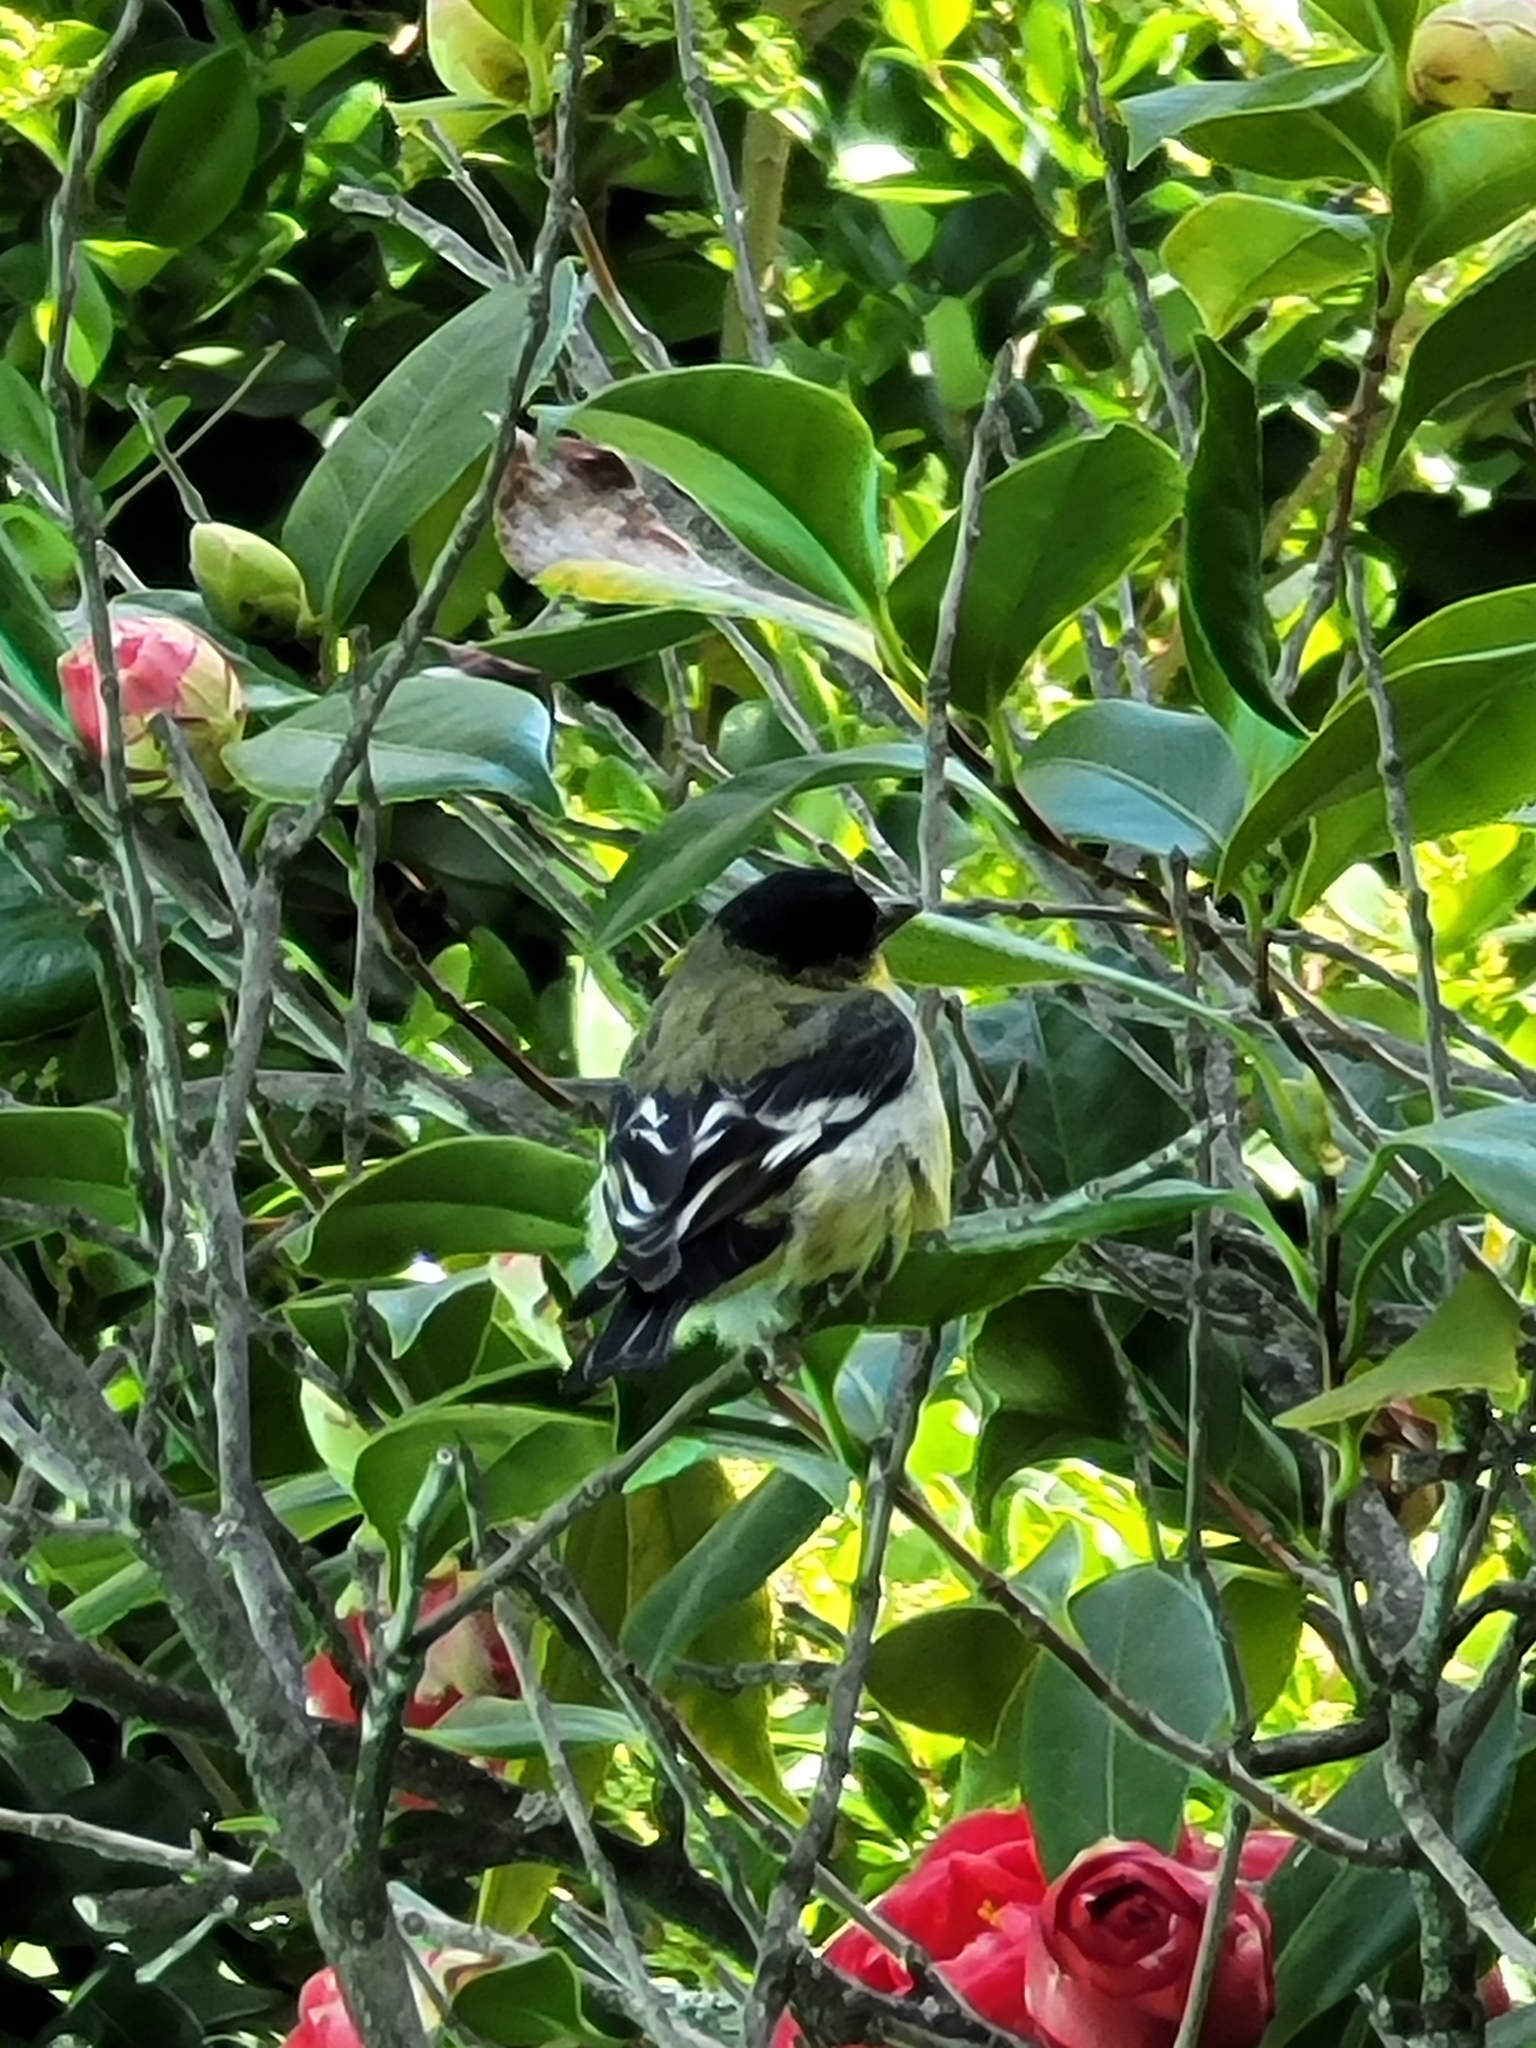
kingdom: Animalia
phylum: Chordata
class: Aves
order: Passeriformes
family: Fringillidae
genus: Spinus
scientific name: Spinus psaltria
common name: Lesser goldfinch
